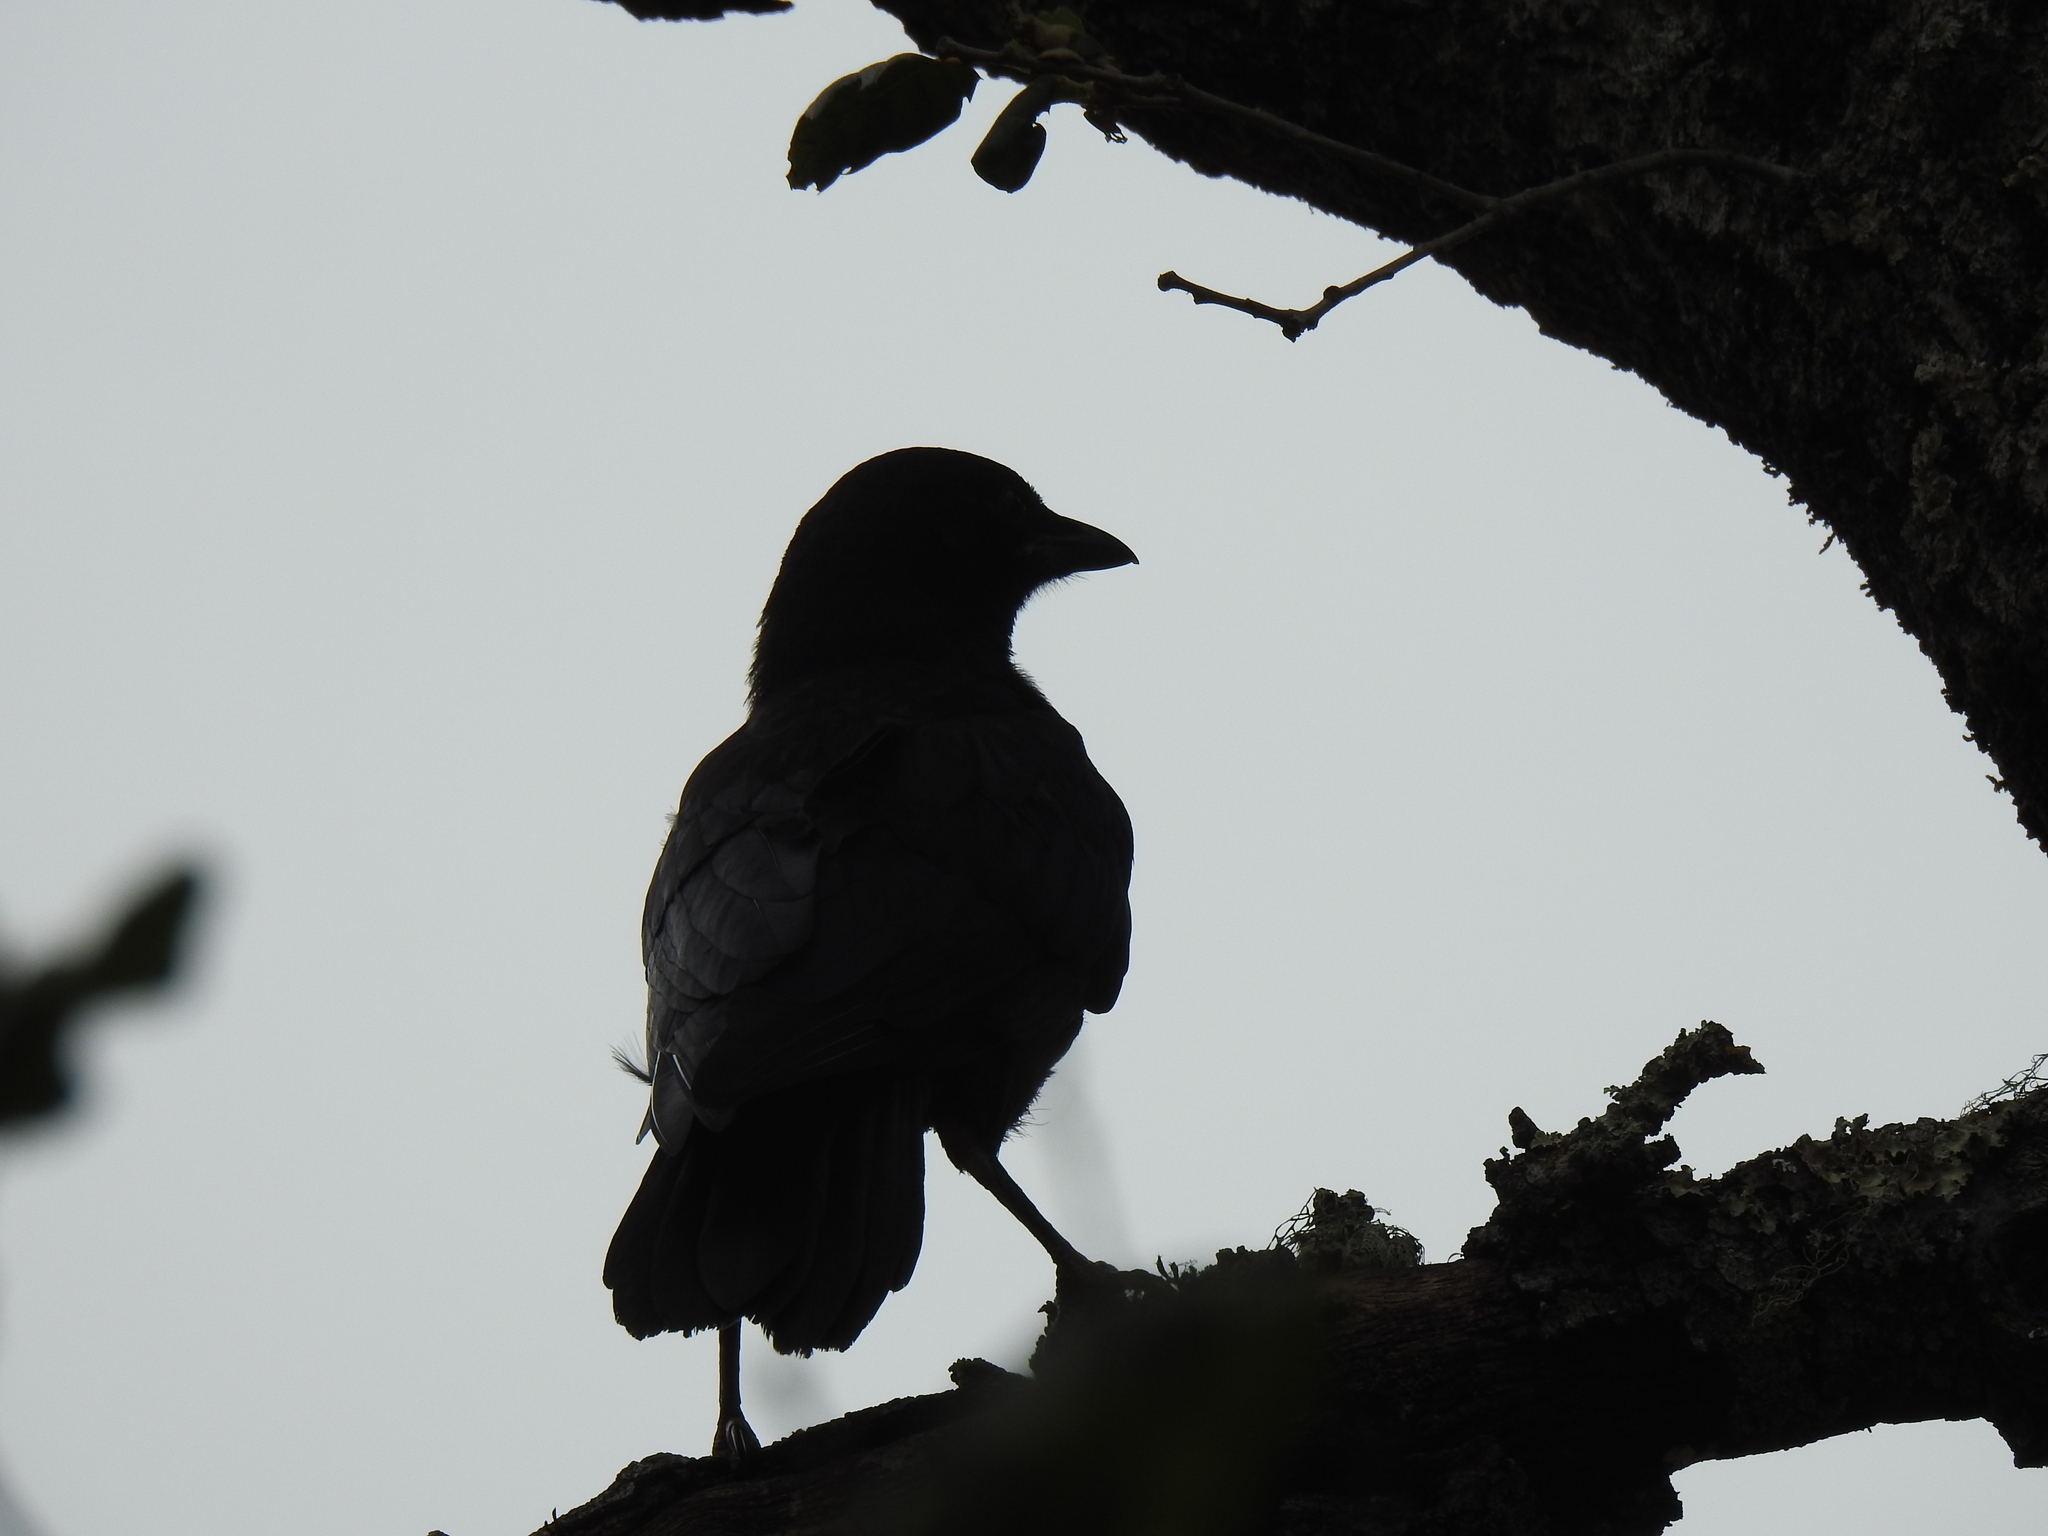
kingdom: Animalia
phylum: Chordata
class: Aves
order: Passeriformes
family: Corvidae
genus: Corvus
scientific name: Corvus brachyrhynchos
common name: American crow
